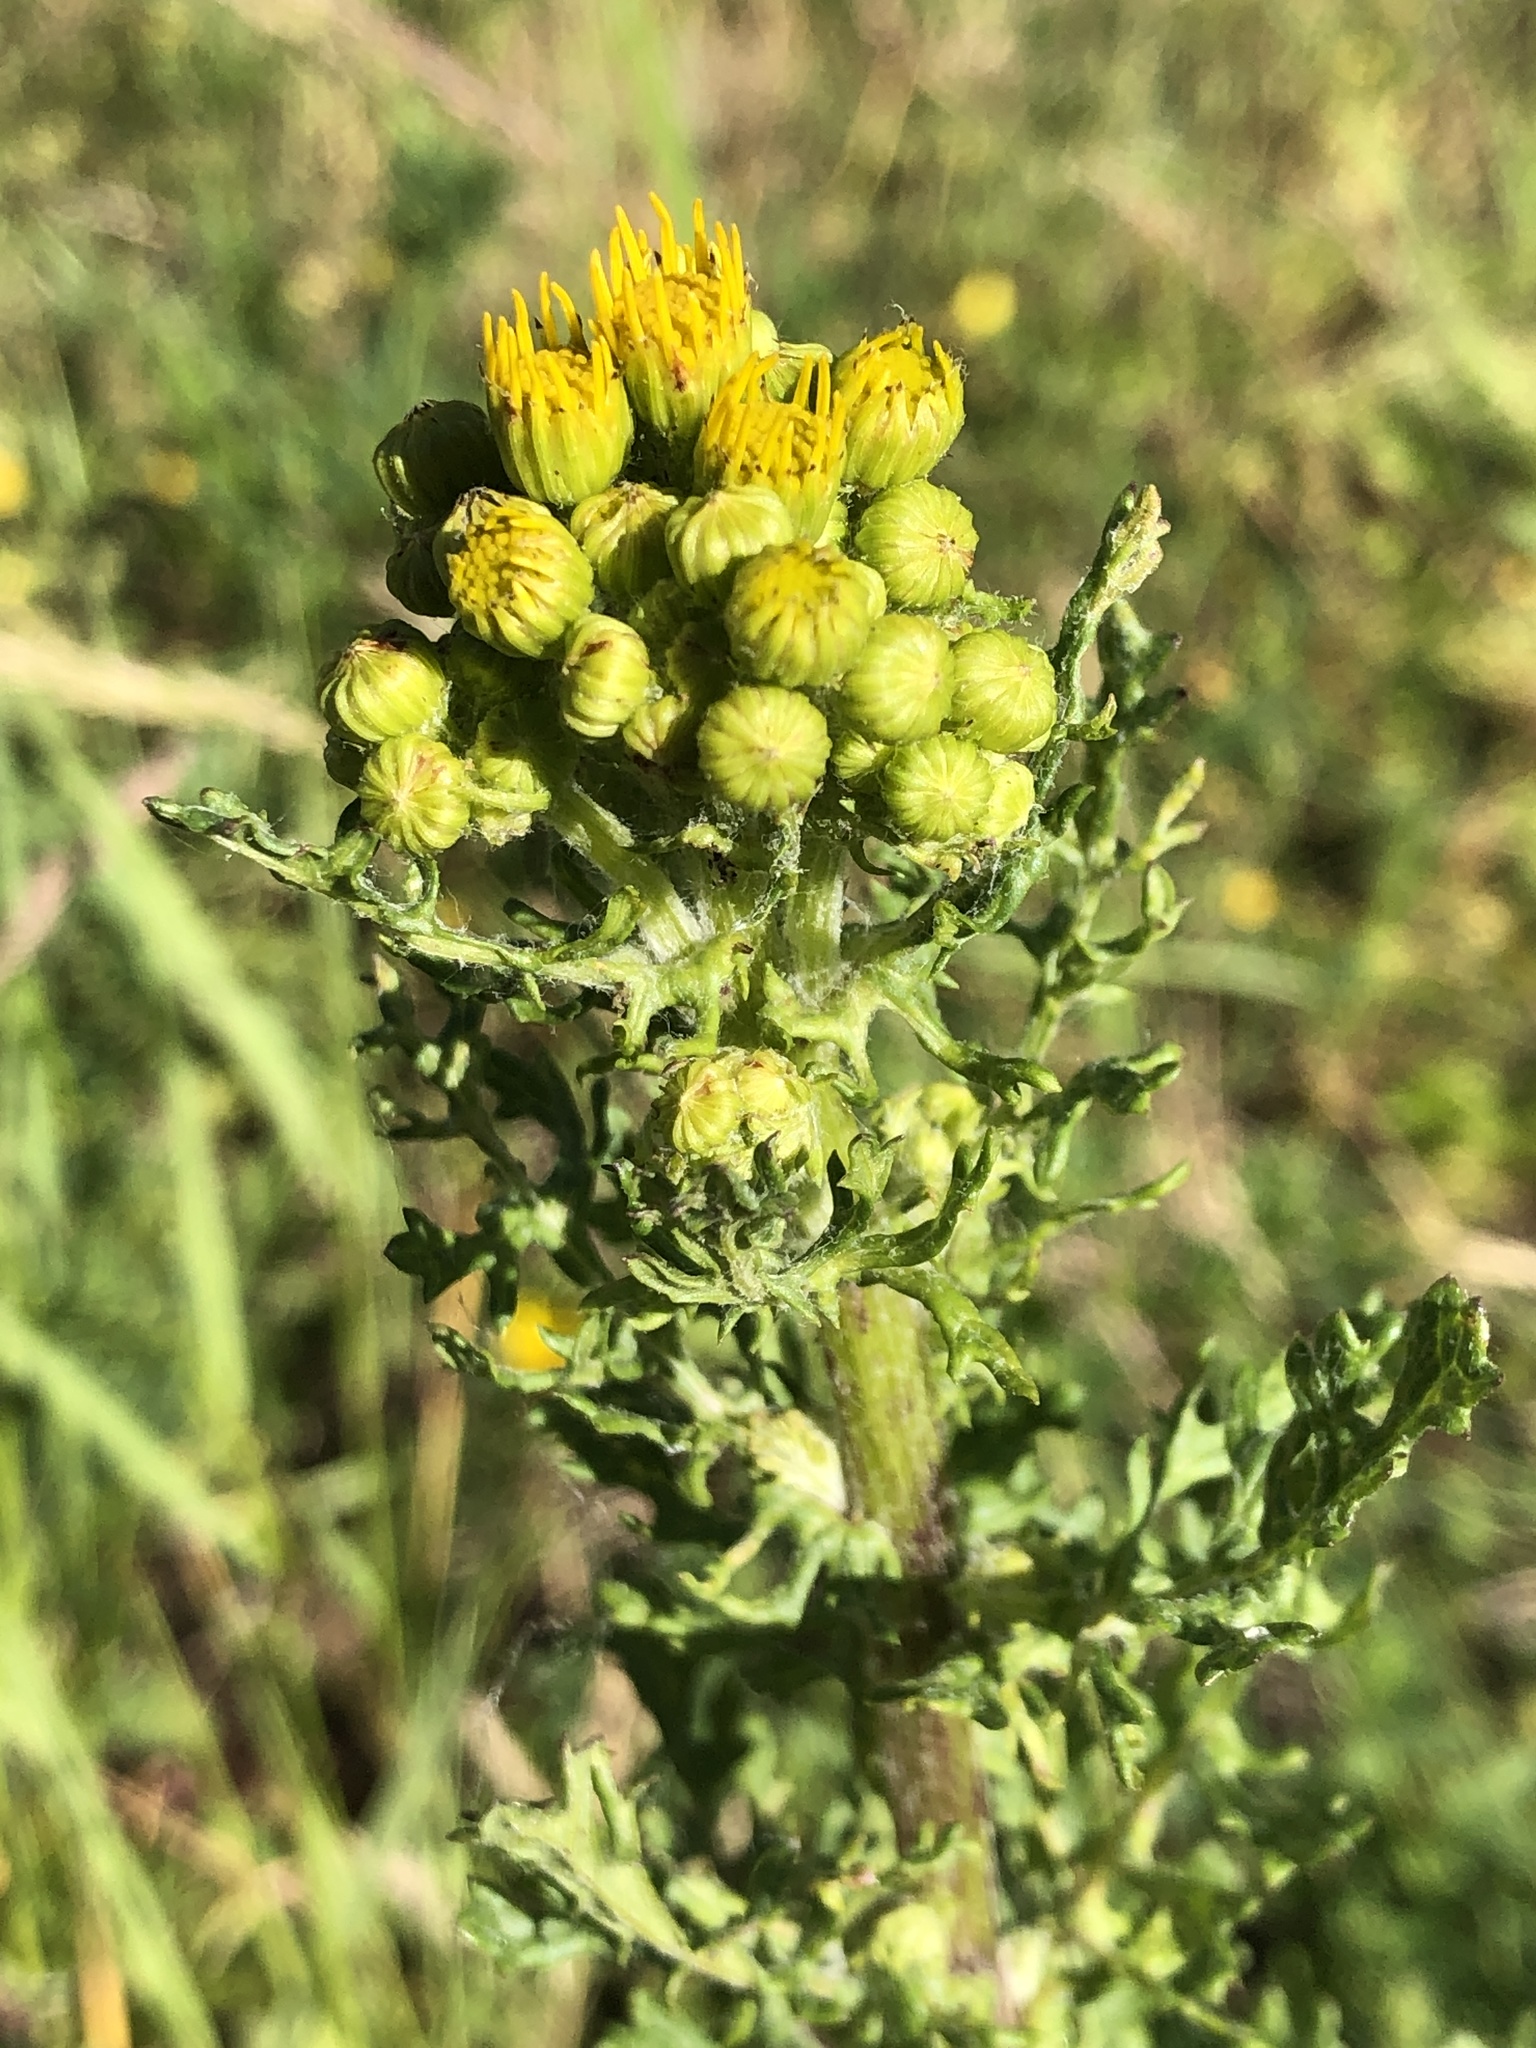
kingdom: Plantae
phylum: Tracheophyta
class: Magnoliopsida
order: Asterales
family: Asteraceae
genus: Jacobaea
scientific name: Jacobaea vulgaris
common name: Stinking willie
